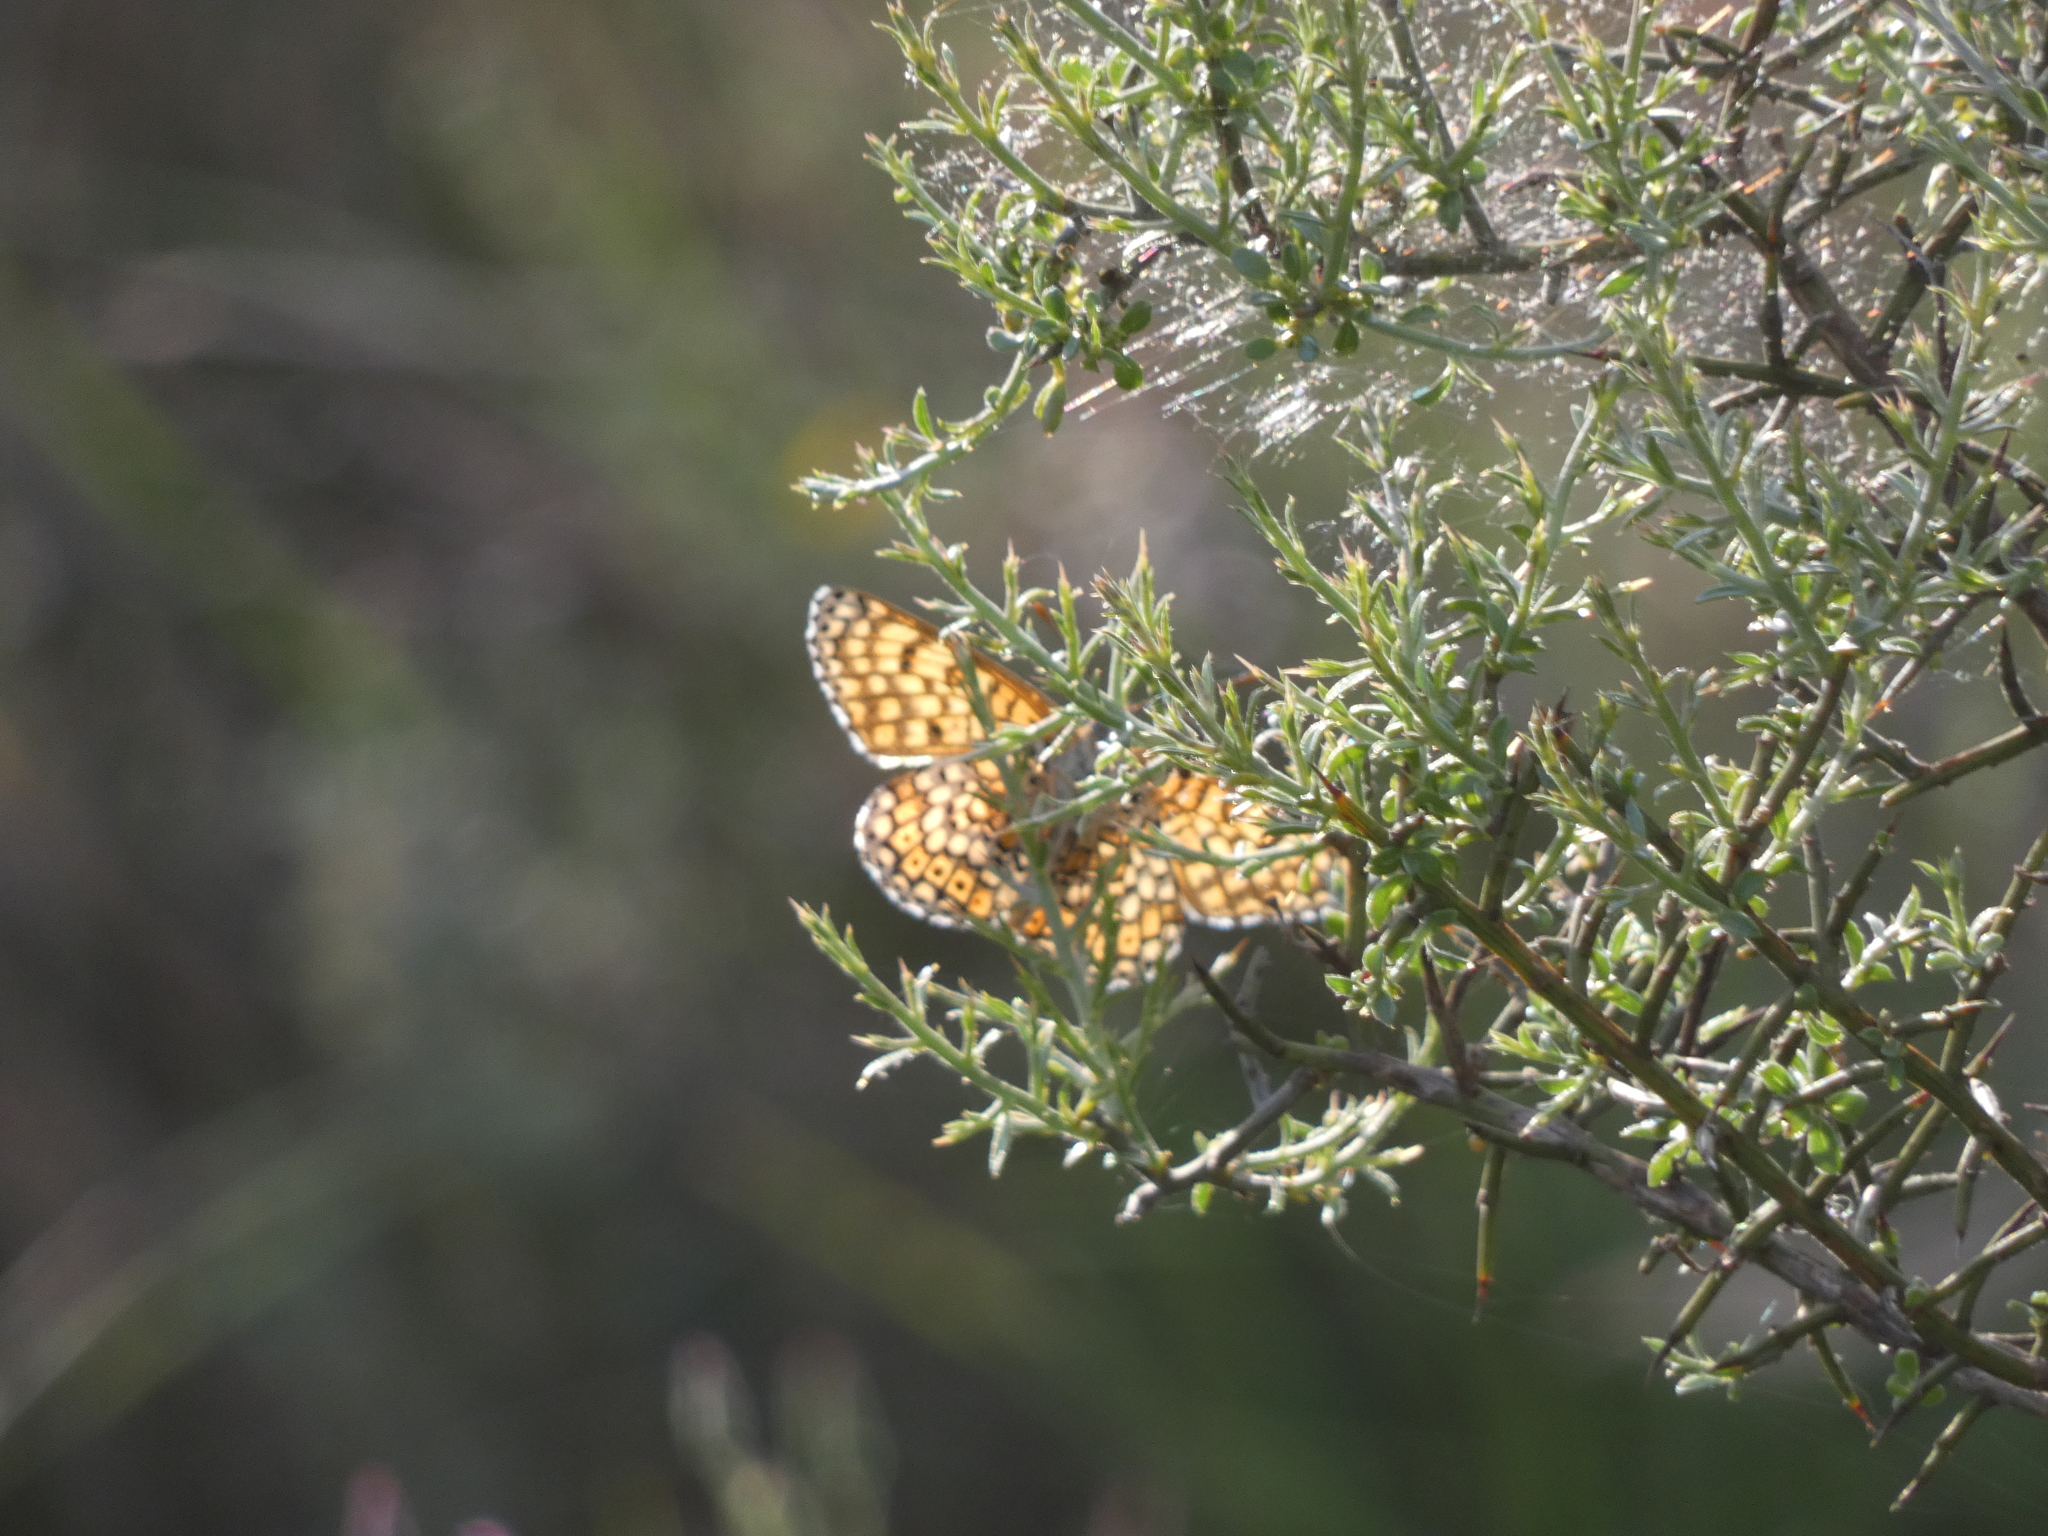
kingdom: Animalia
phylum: Arthropoda
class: Insecta
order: Lepidoptera
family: Nymphalidae
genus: Melitaea
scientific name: Melitaea cinxia
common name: Glanville fritillary
